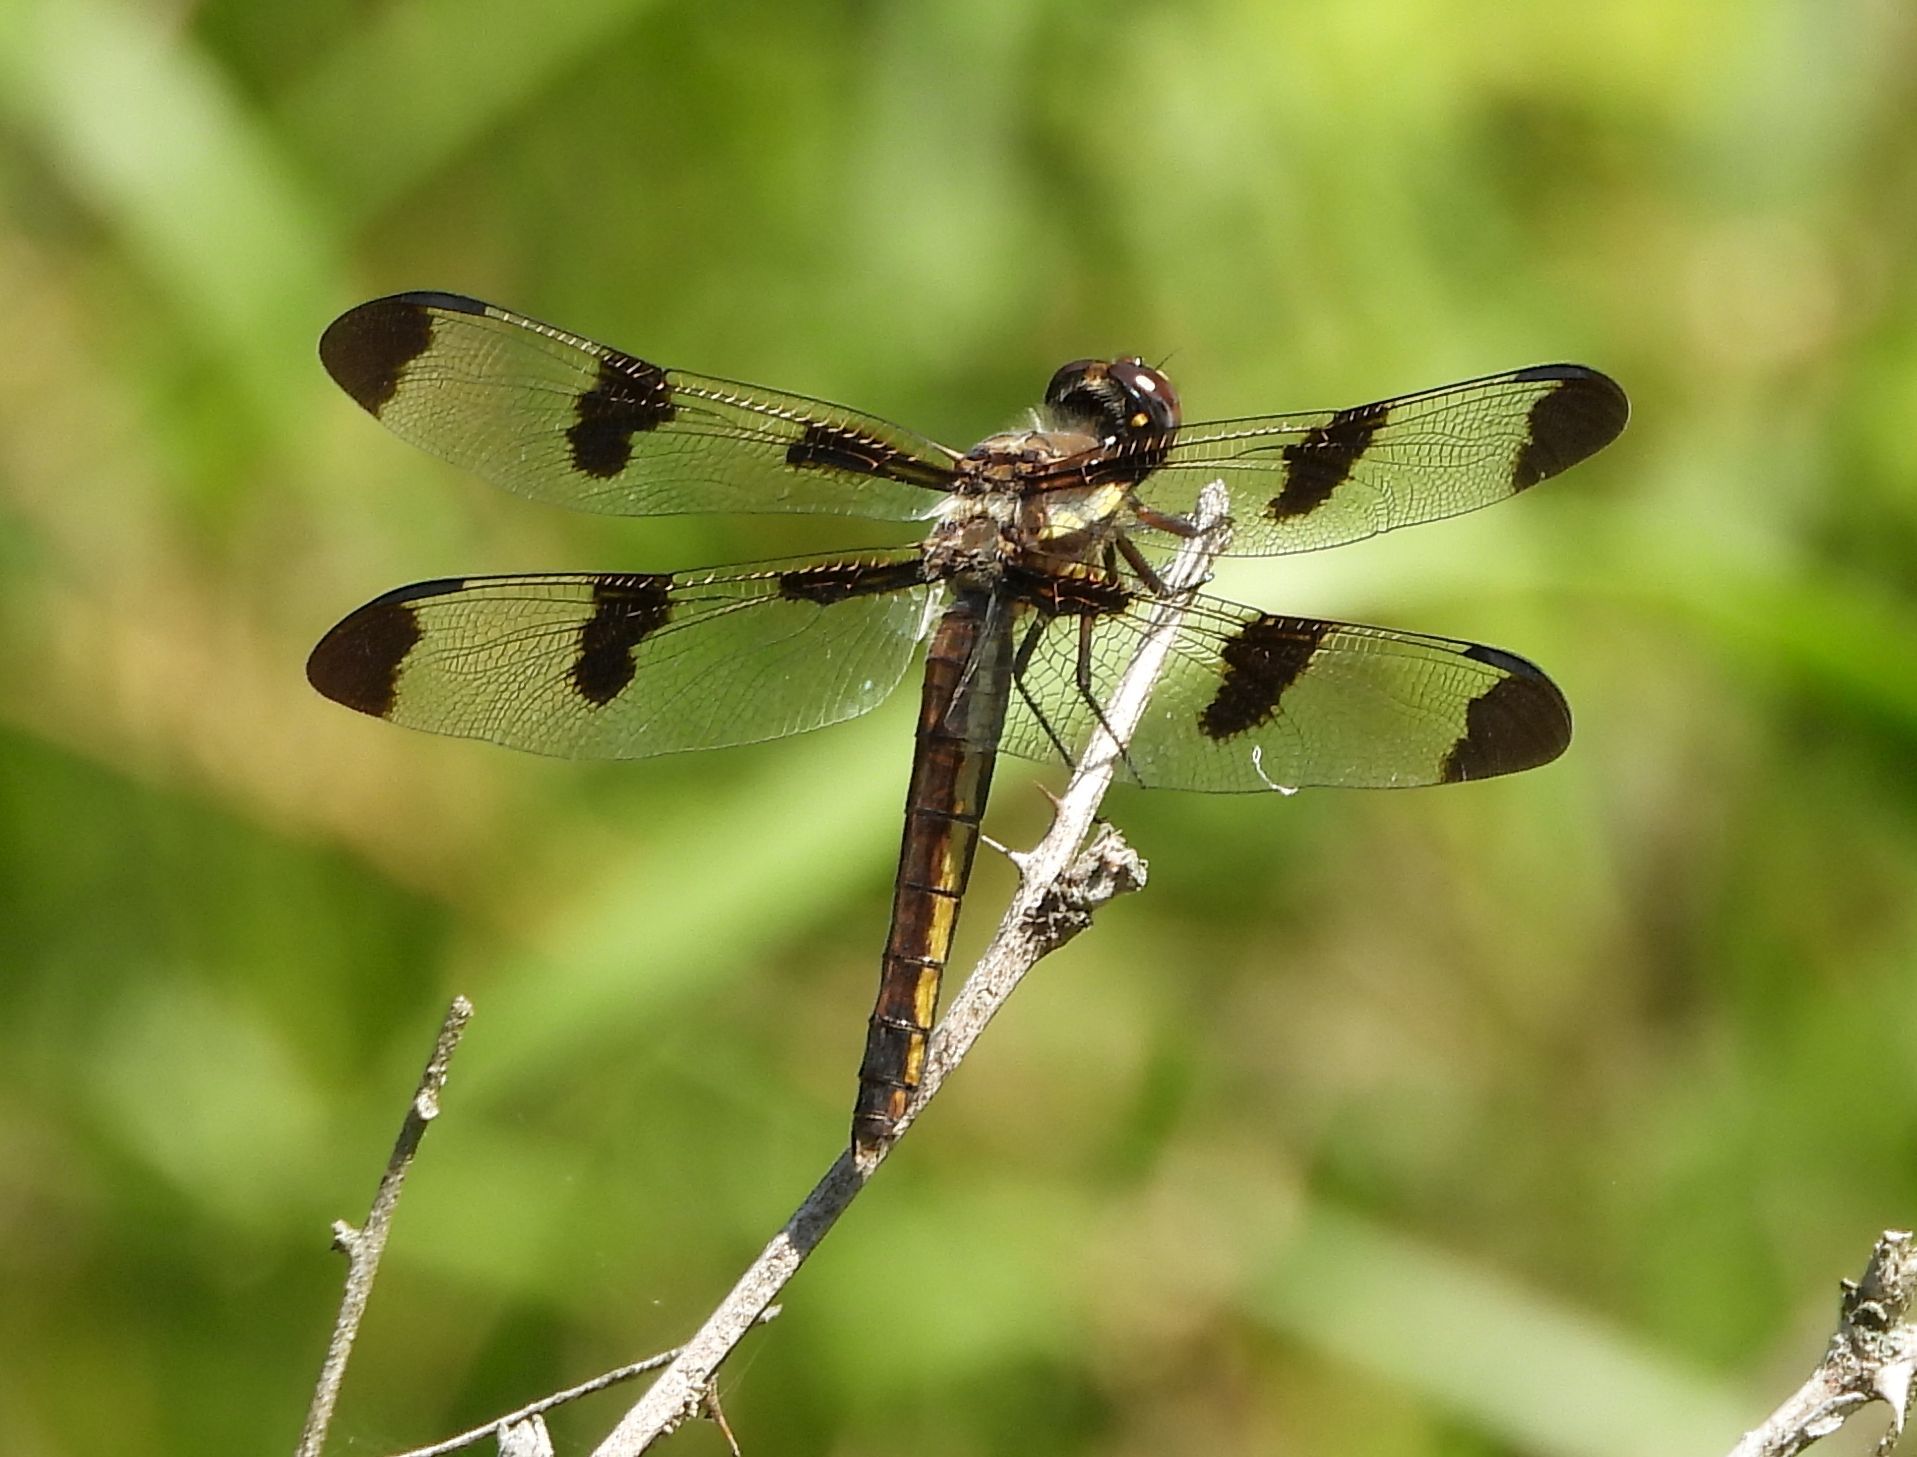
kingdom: Animalia
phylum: Arthropoda
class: Insecta
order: Odonata
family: Libellulidae
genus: Libellula
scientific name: Libellula pulchella
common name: Twelve-spotted skimmer
